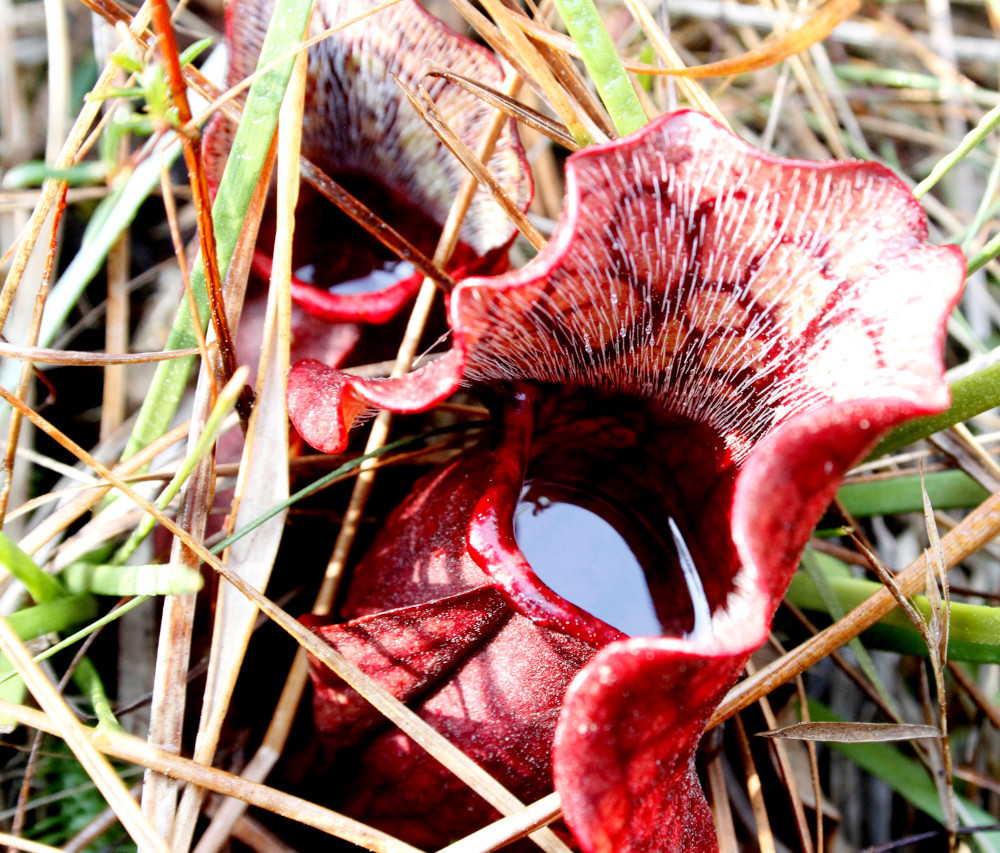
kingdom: Plantae
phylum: Tracheophyta
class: Magnoliopsida
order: Ericales
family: Sarraceniaceae
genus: Sarracenia
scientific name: Sarracenia purpurea
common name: Pitcherplant
